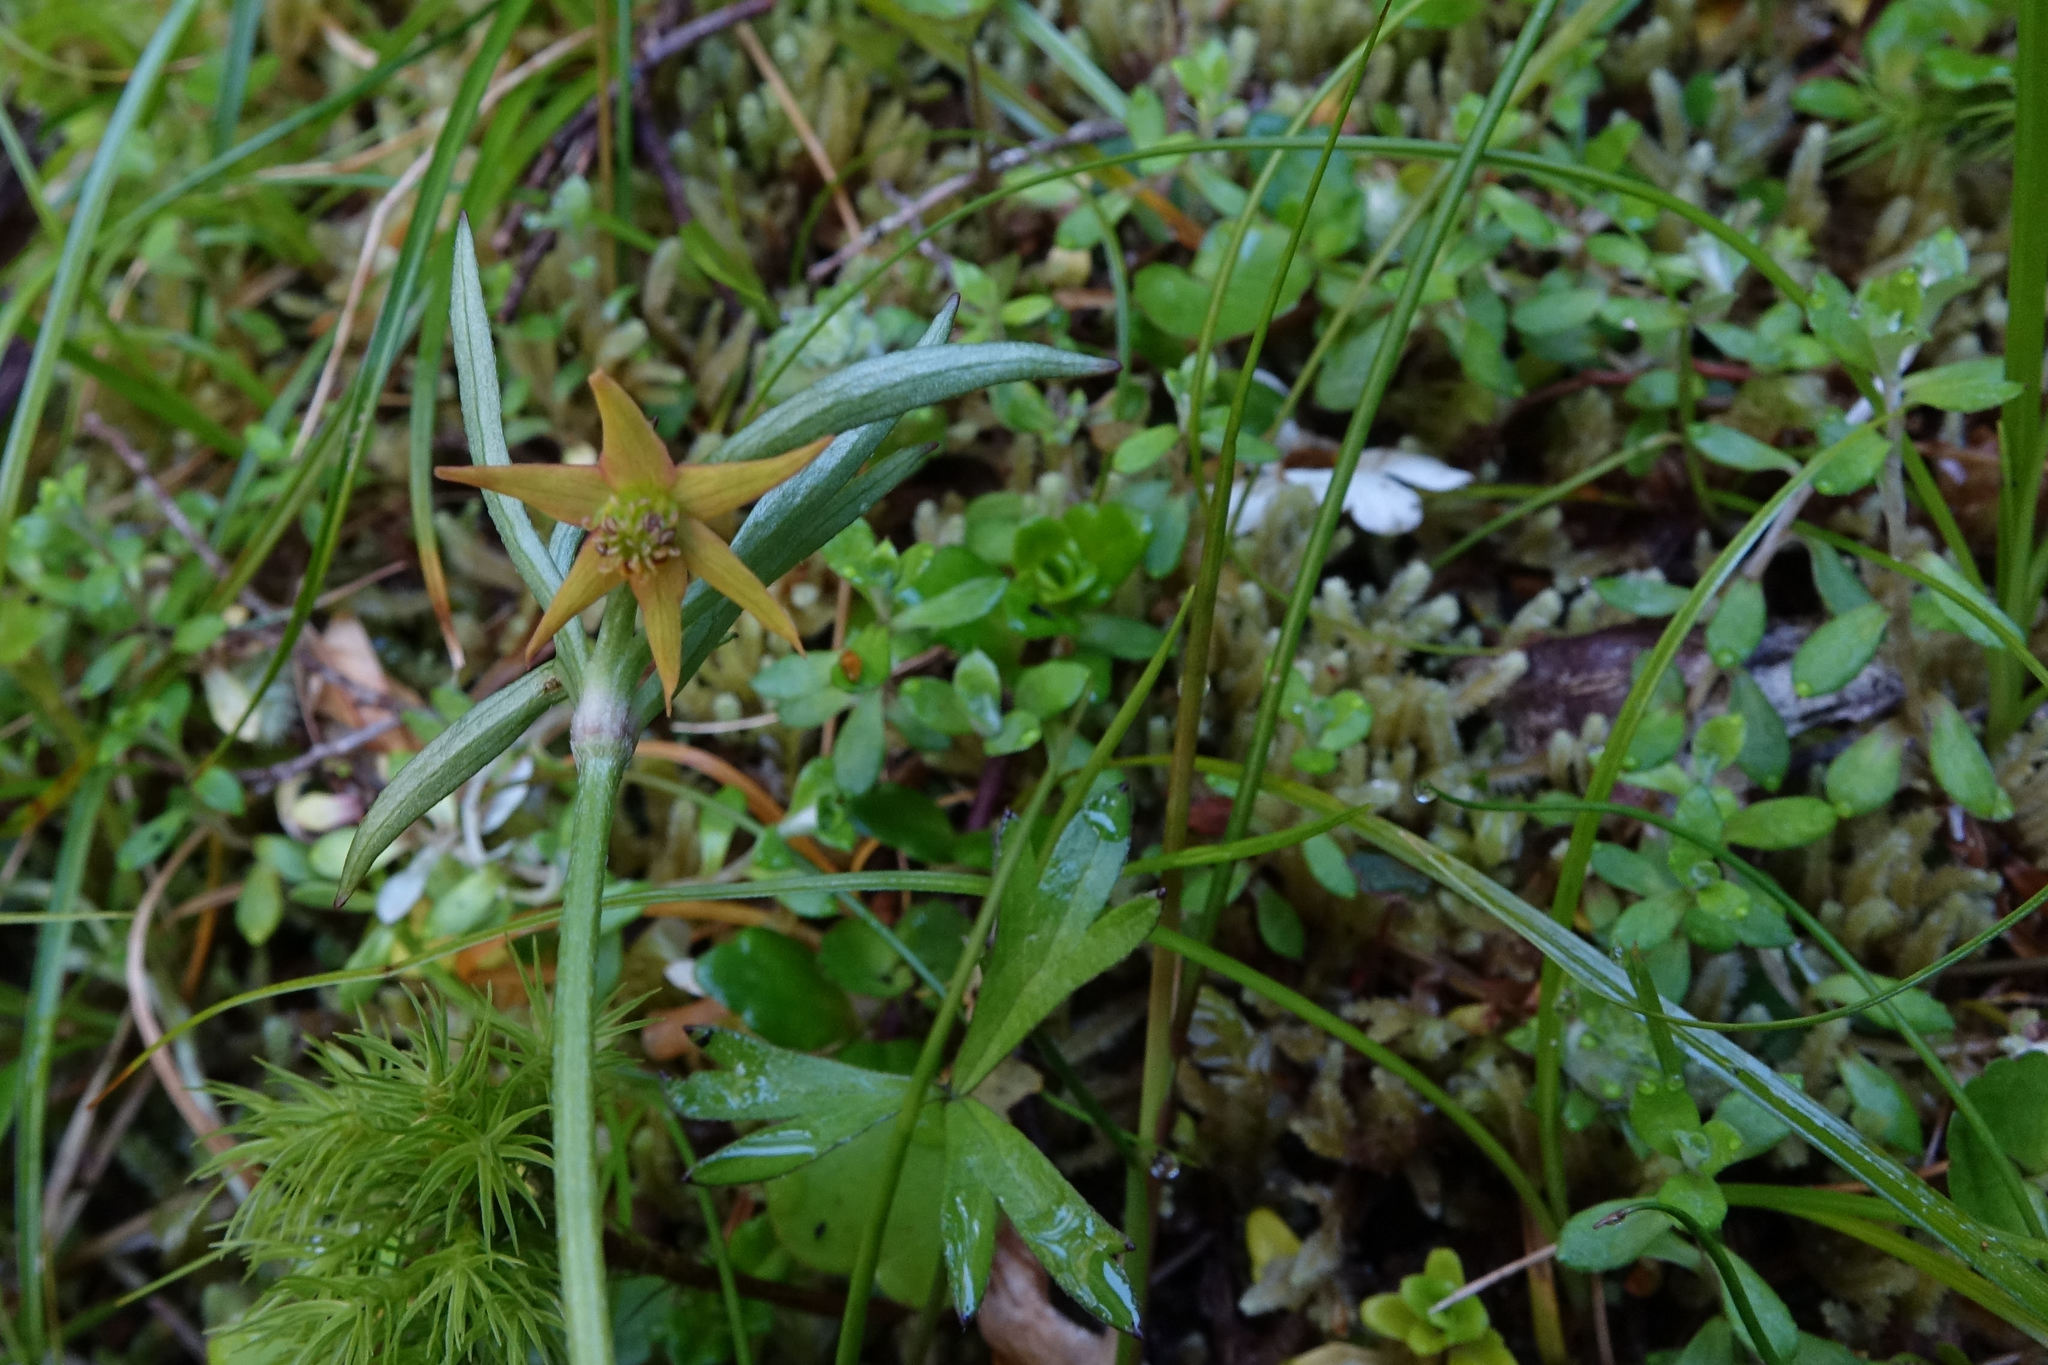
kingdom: Plantae
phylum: Tracheophyta
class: Magnoliopsida
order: Ranunculales
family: Ranunculaceae
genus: Anemonastrum
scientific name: Anemonastrum tenuicaule
